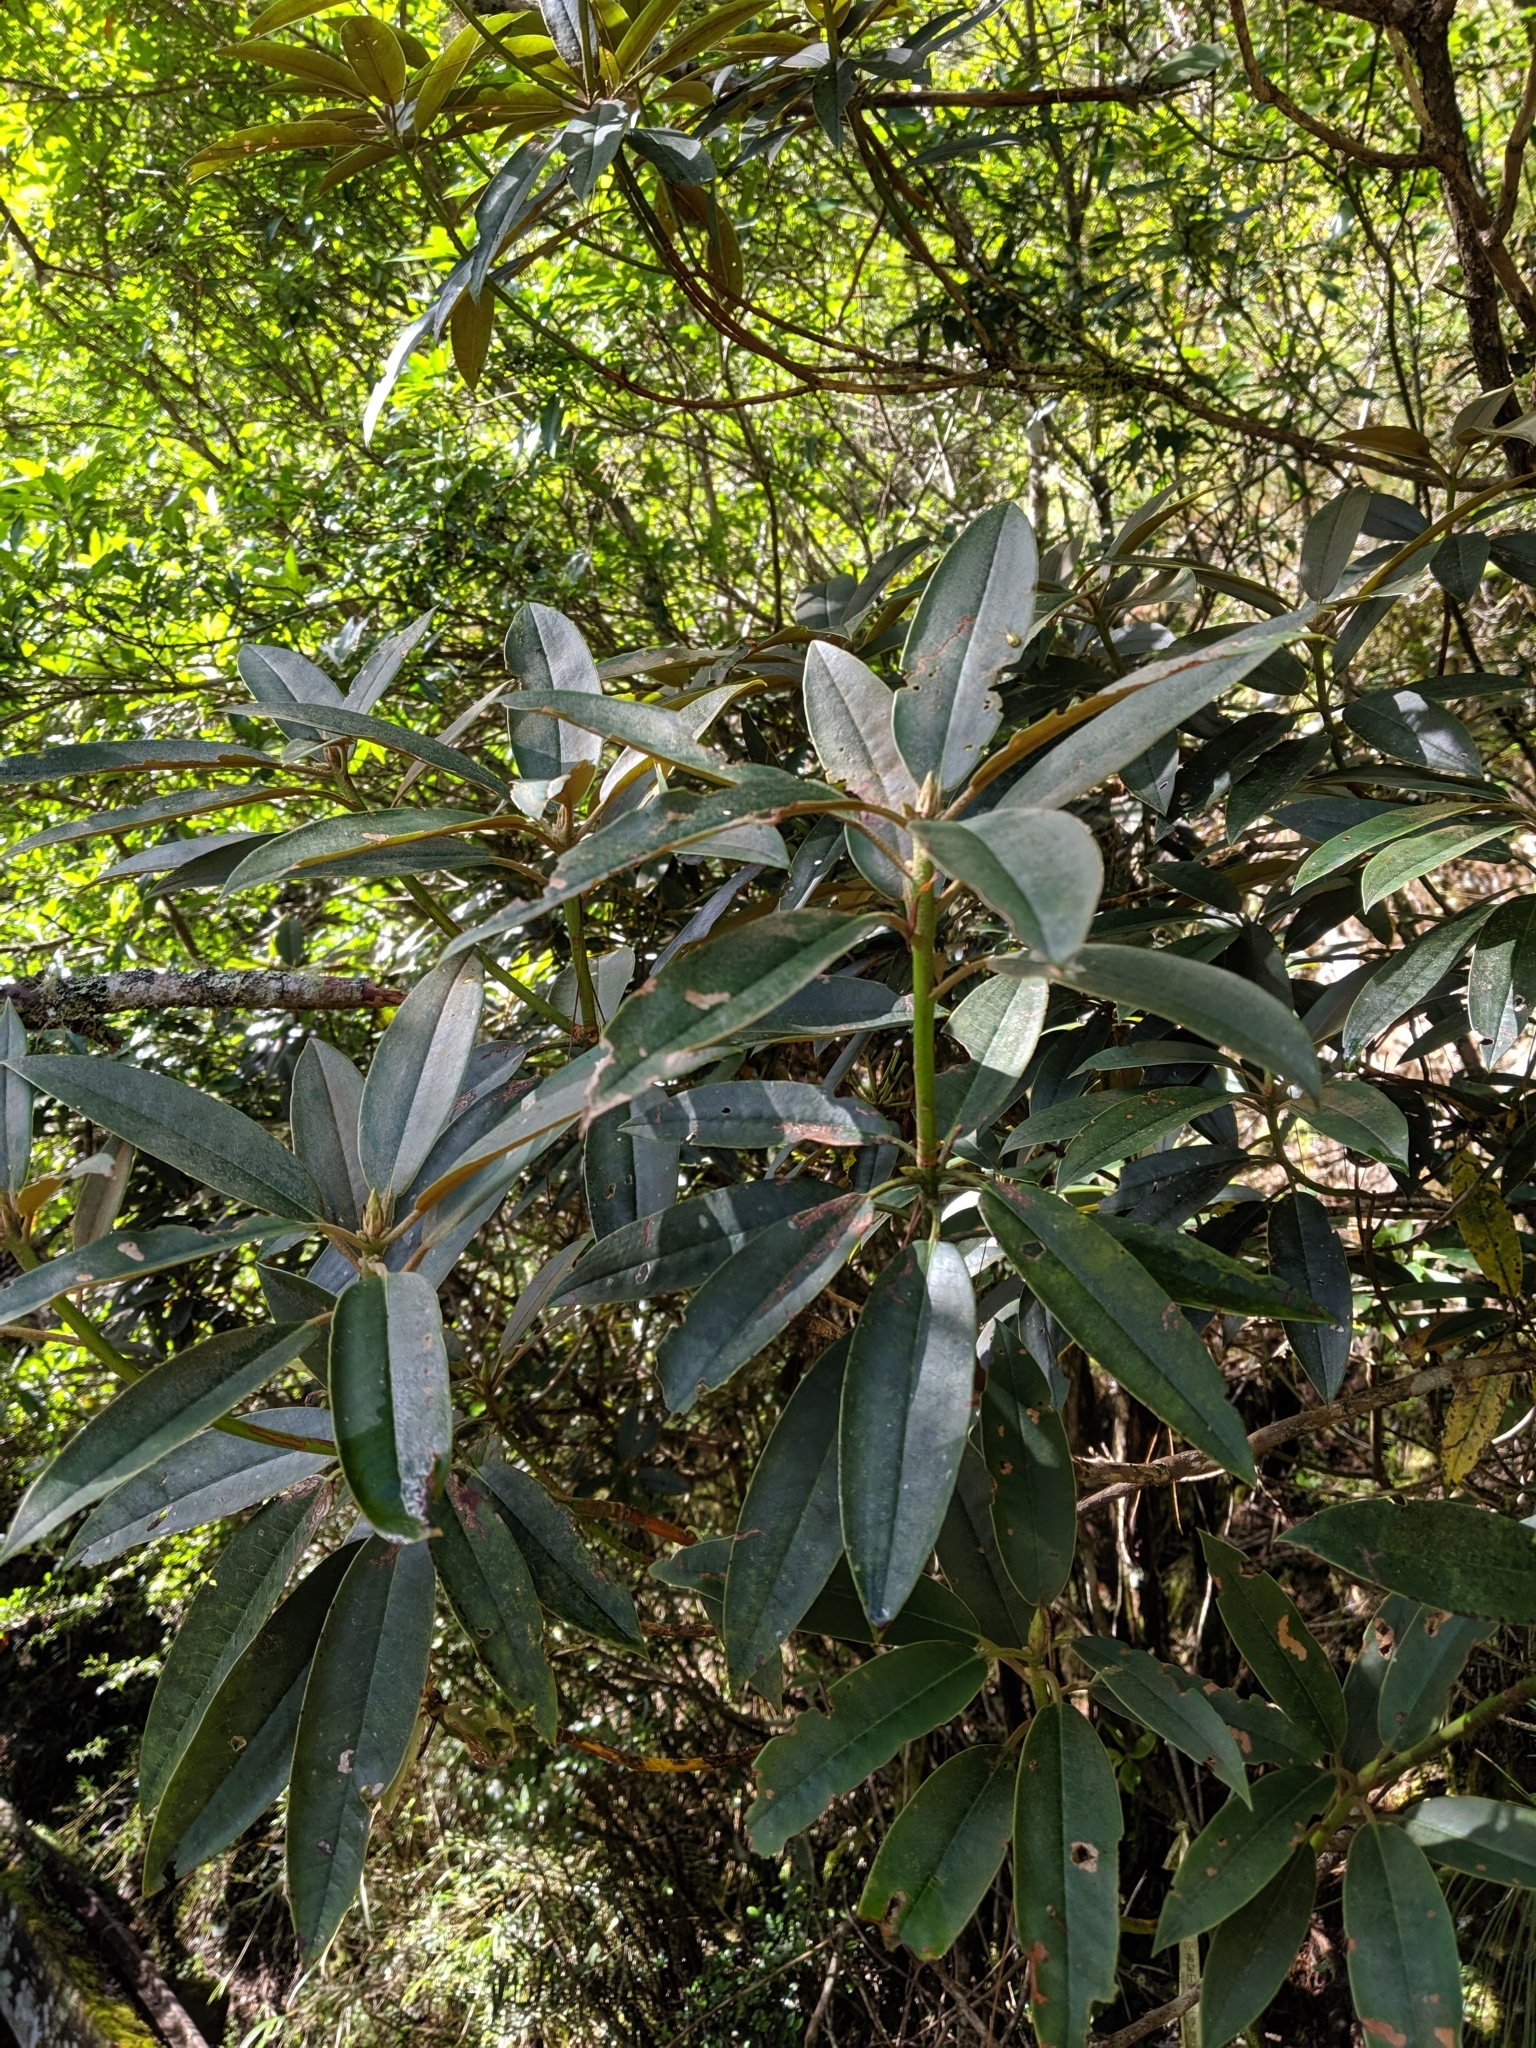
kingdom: Plantae
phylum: Tracheophyta
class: Magnoliopsida
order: Ericales
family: Ericaceae
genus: Rhododendron
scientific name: Rhododendron formosanum
